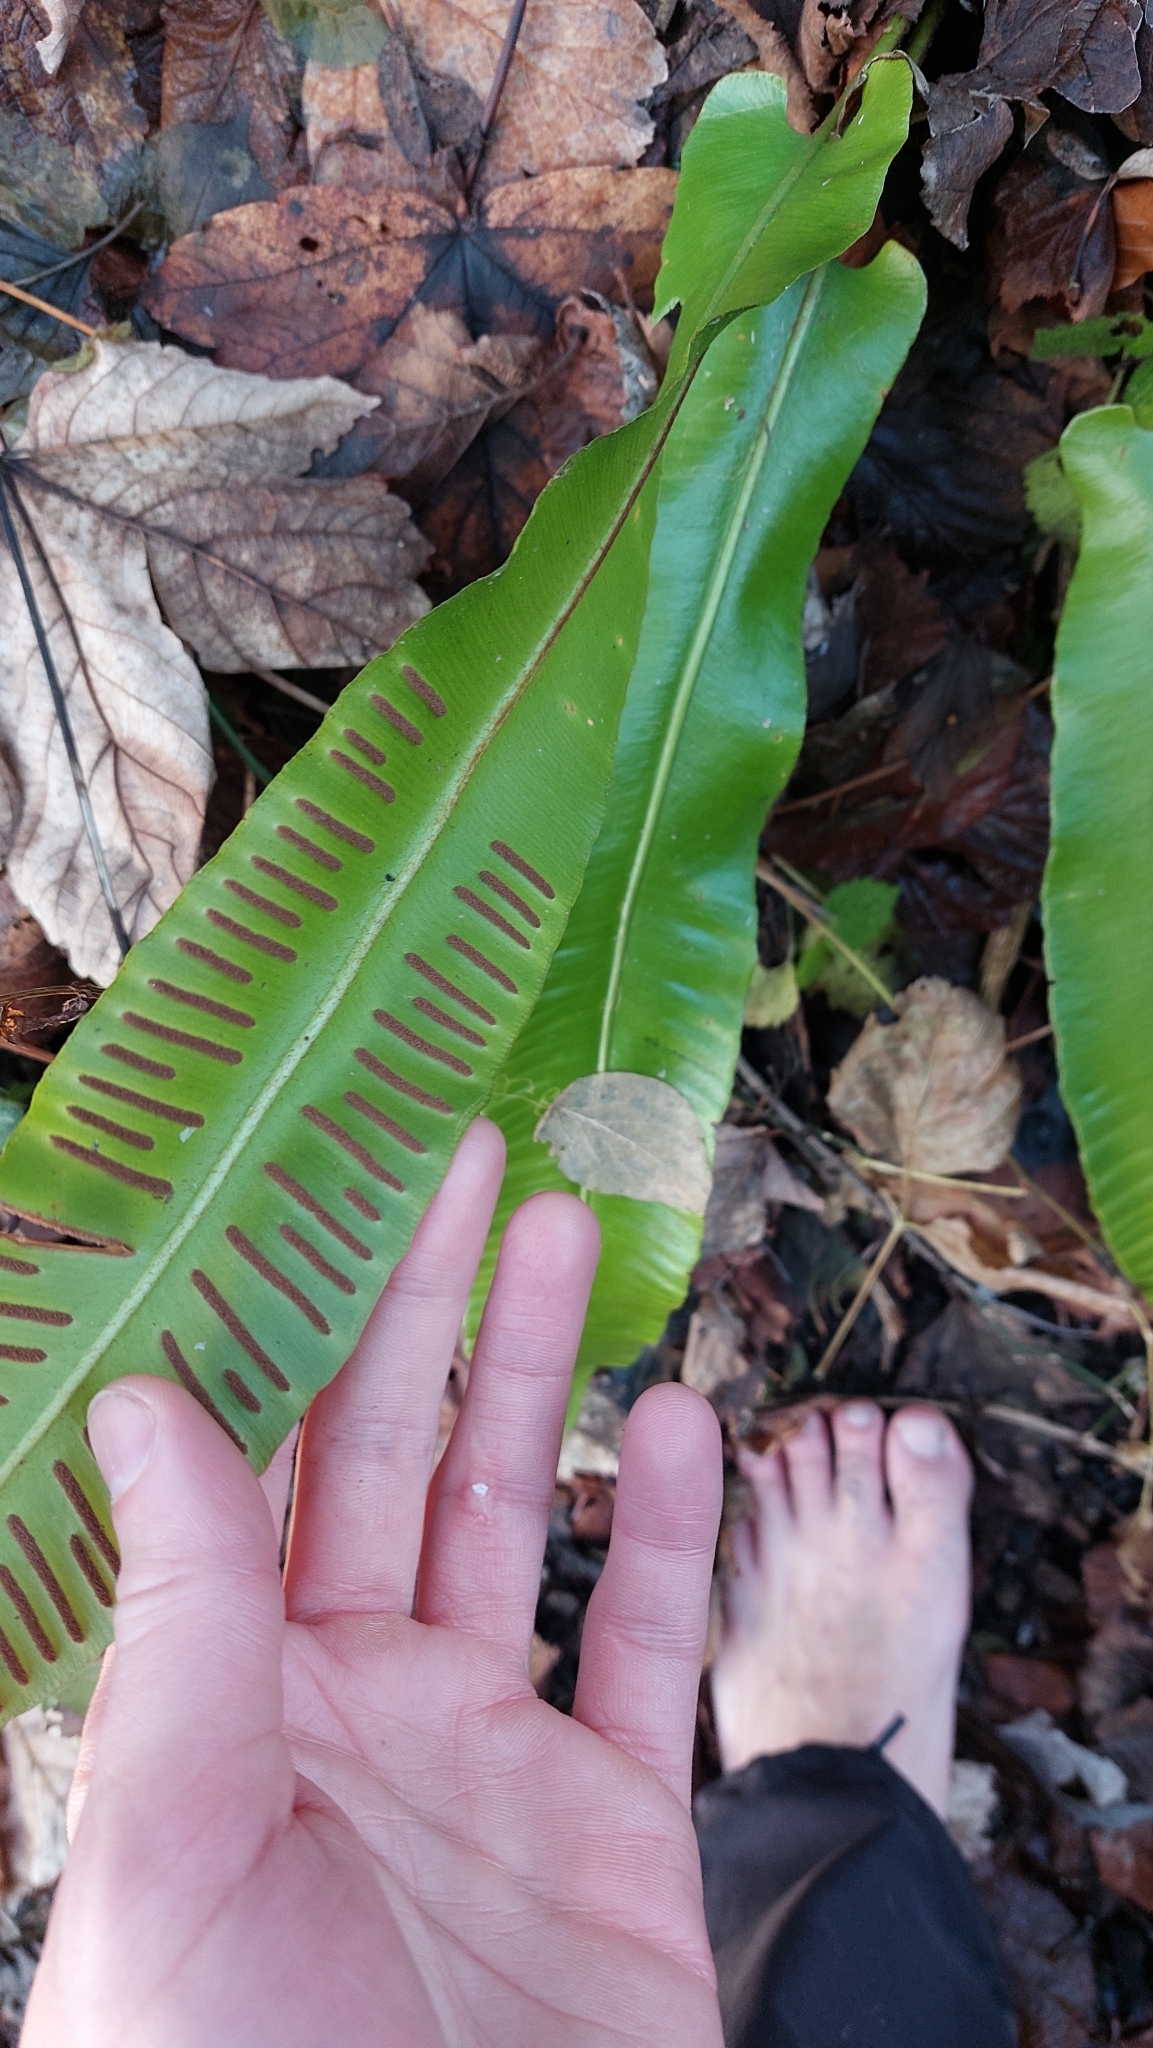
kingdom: Plantae
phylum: Tracheophyta
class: Polypodiopsida
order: Polypodiales
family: Aspleniaceae
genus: Asplenium
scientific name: Asplenium scolopendrium
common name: Hart's-tongue fern
